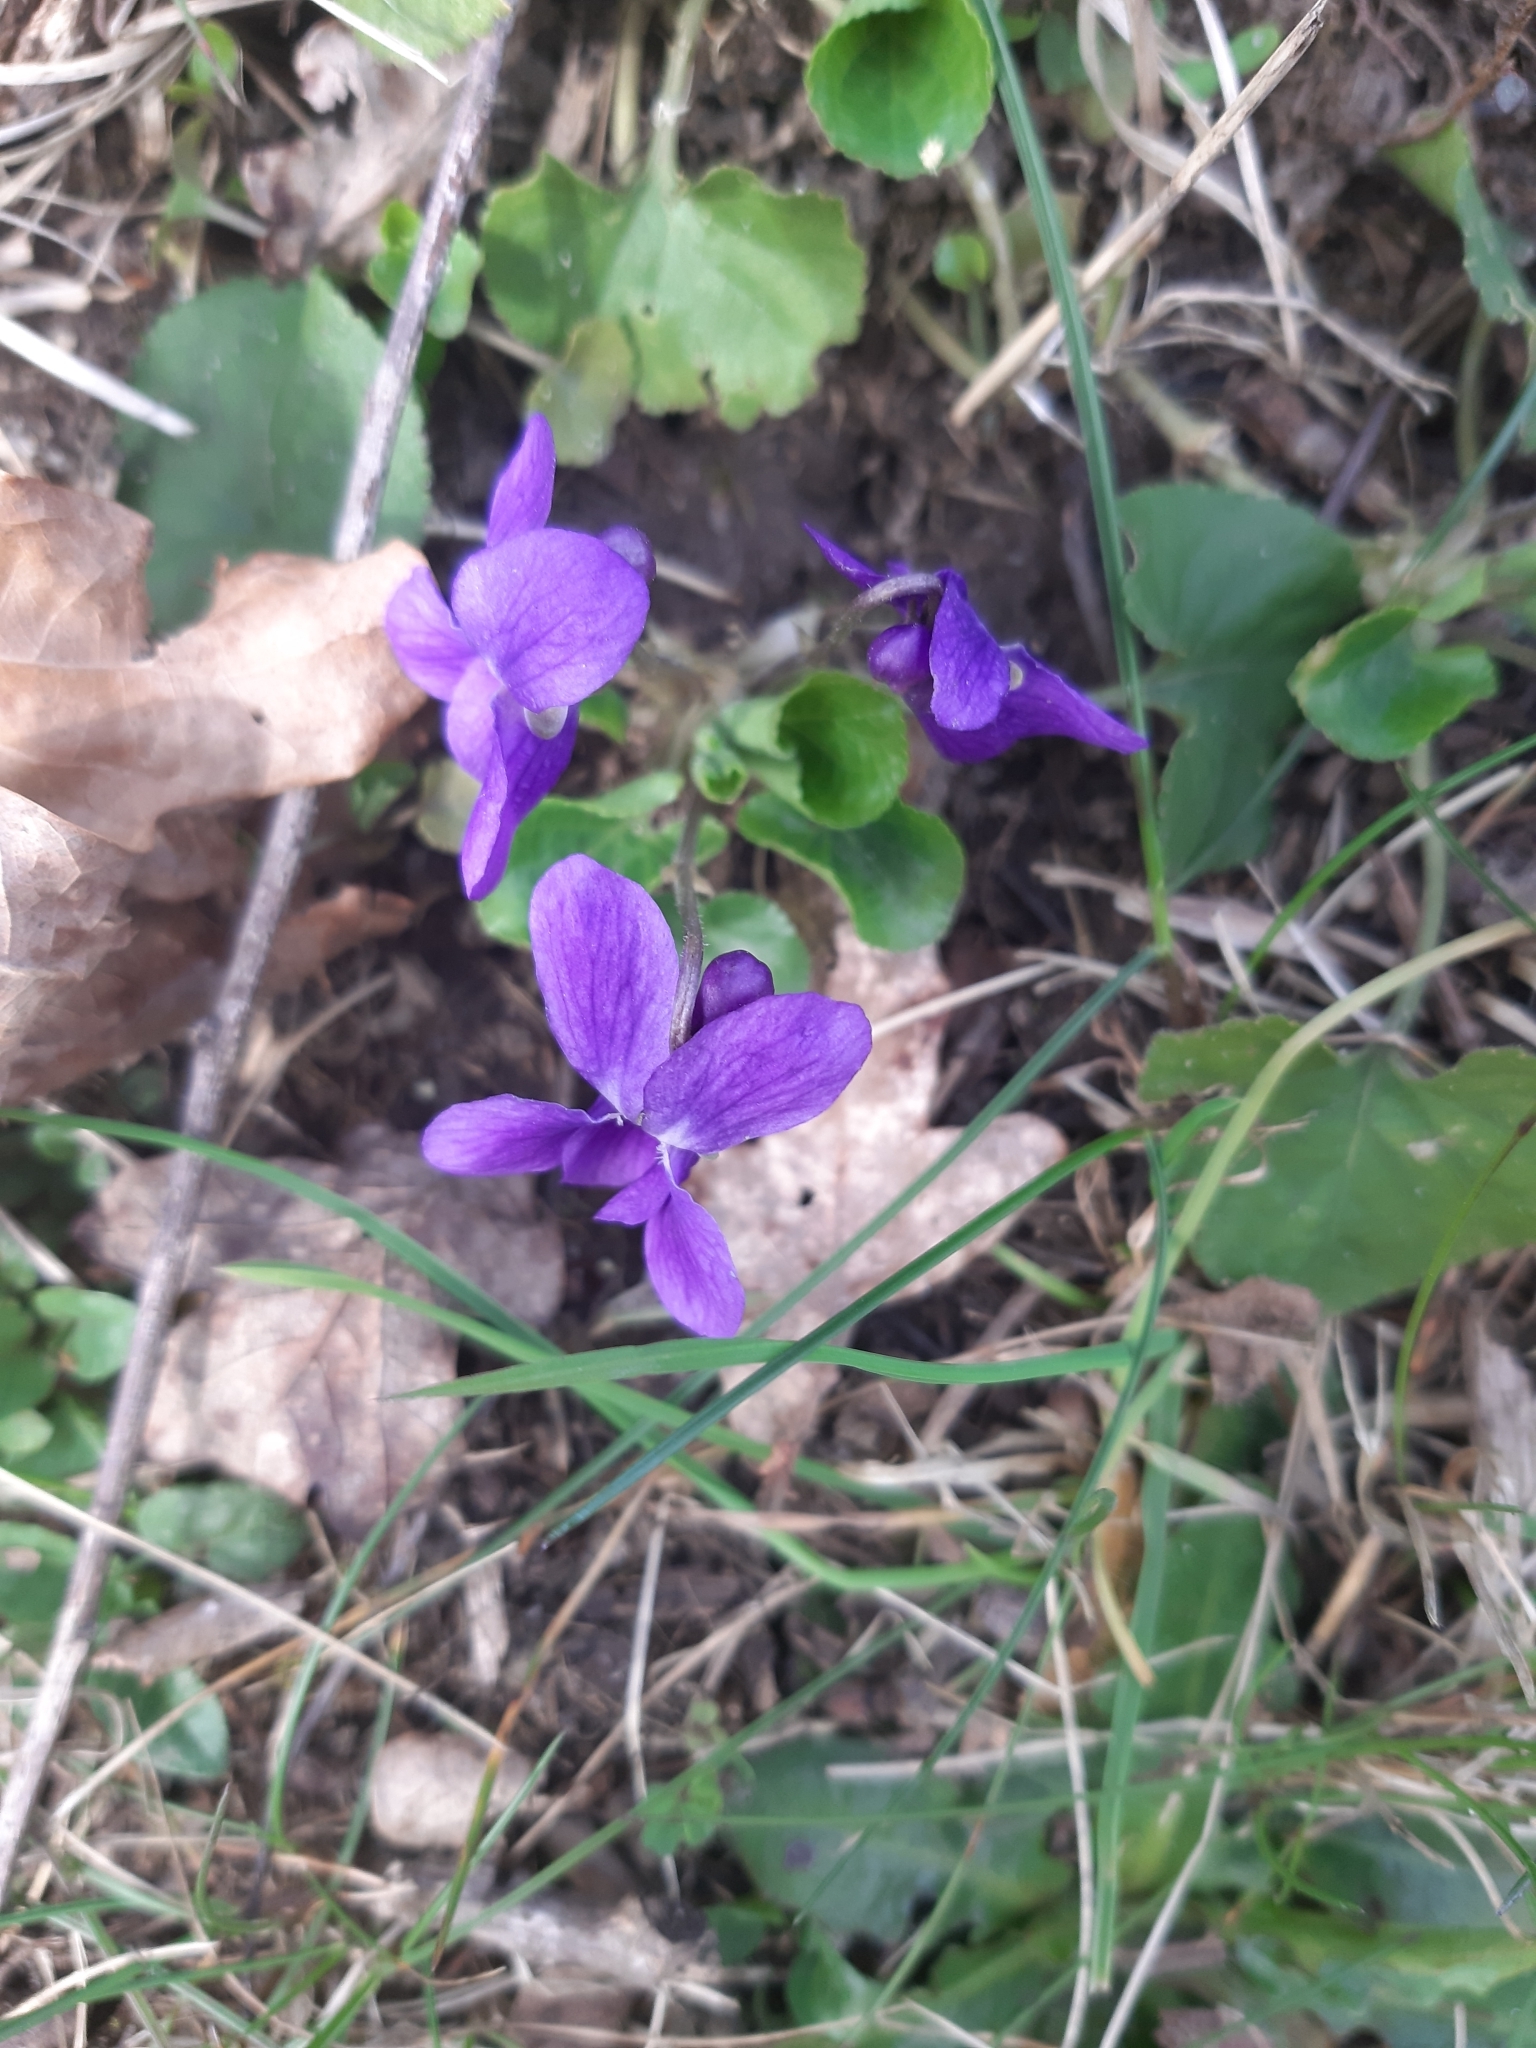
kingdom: Plantae
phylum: Tracheophyta
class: Magnoliopsida
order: Malpighiales
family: Violaceae
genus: Viola
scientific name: Viola odorata
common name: Sweet violet
